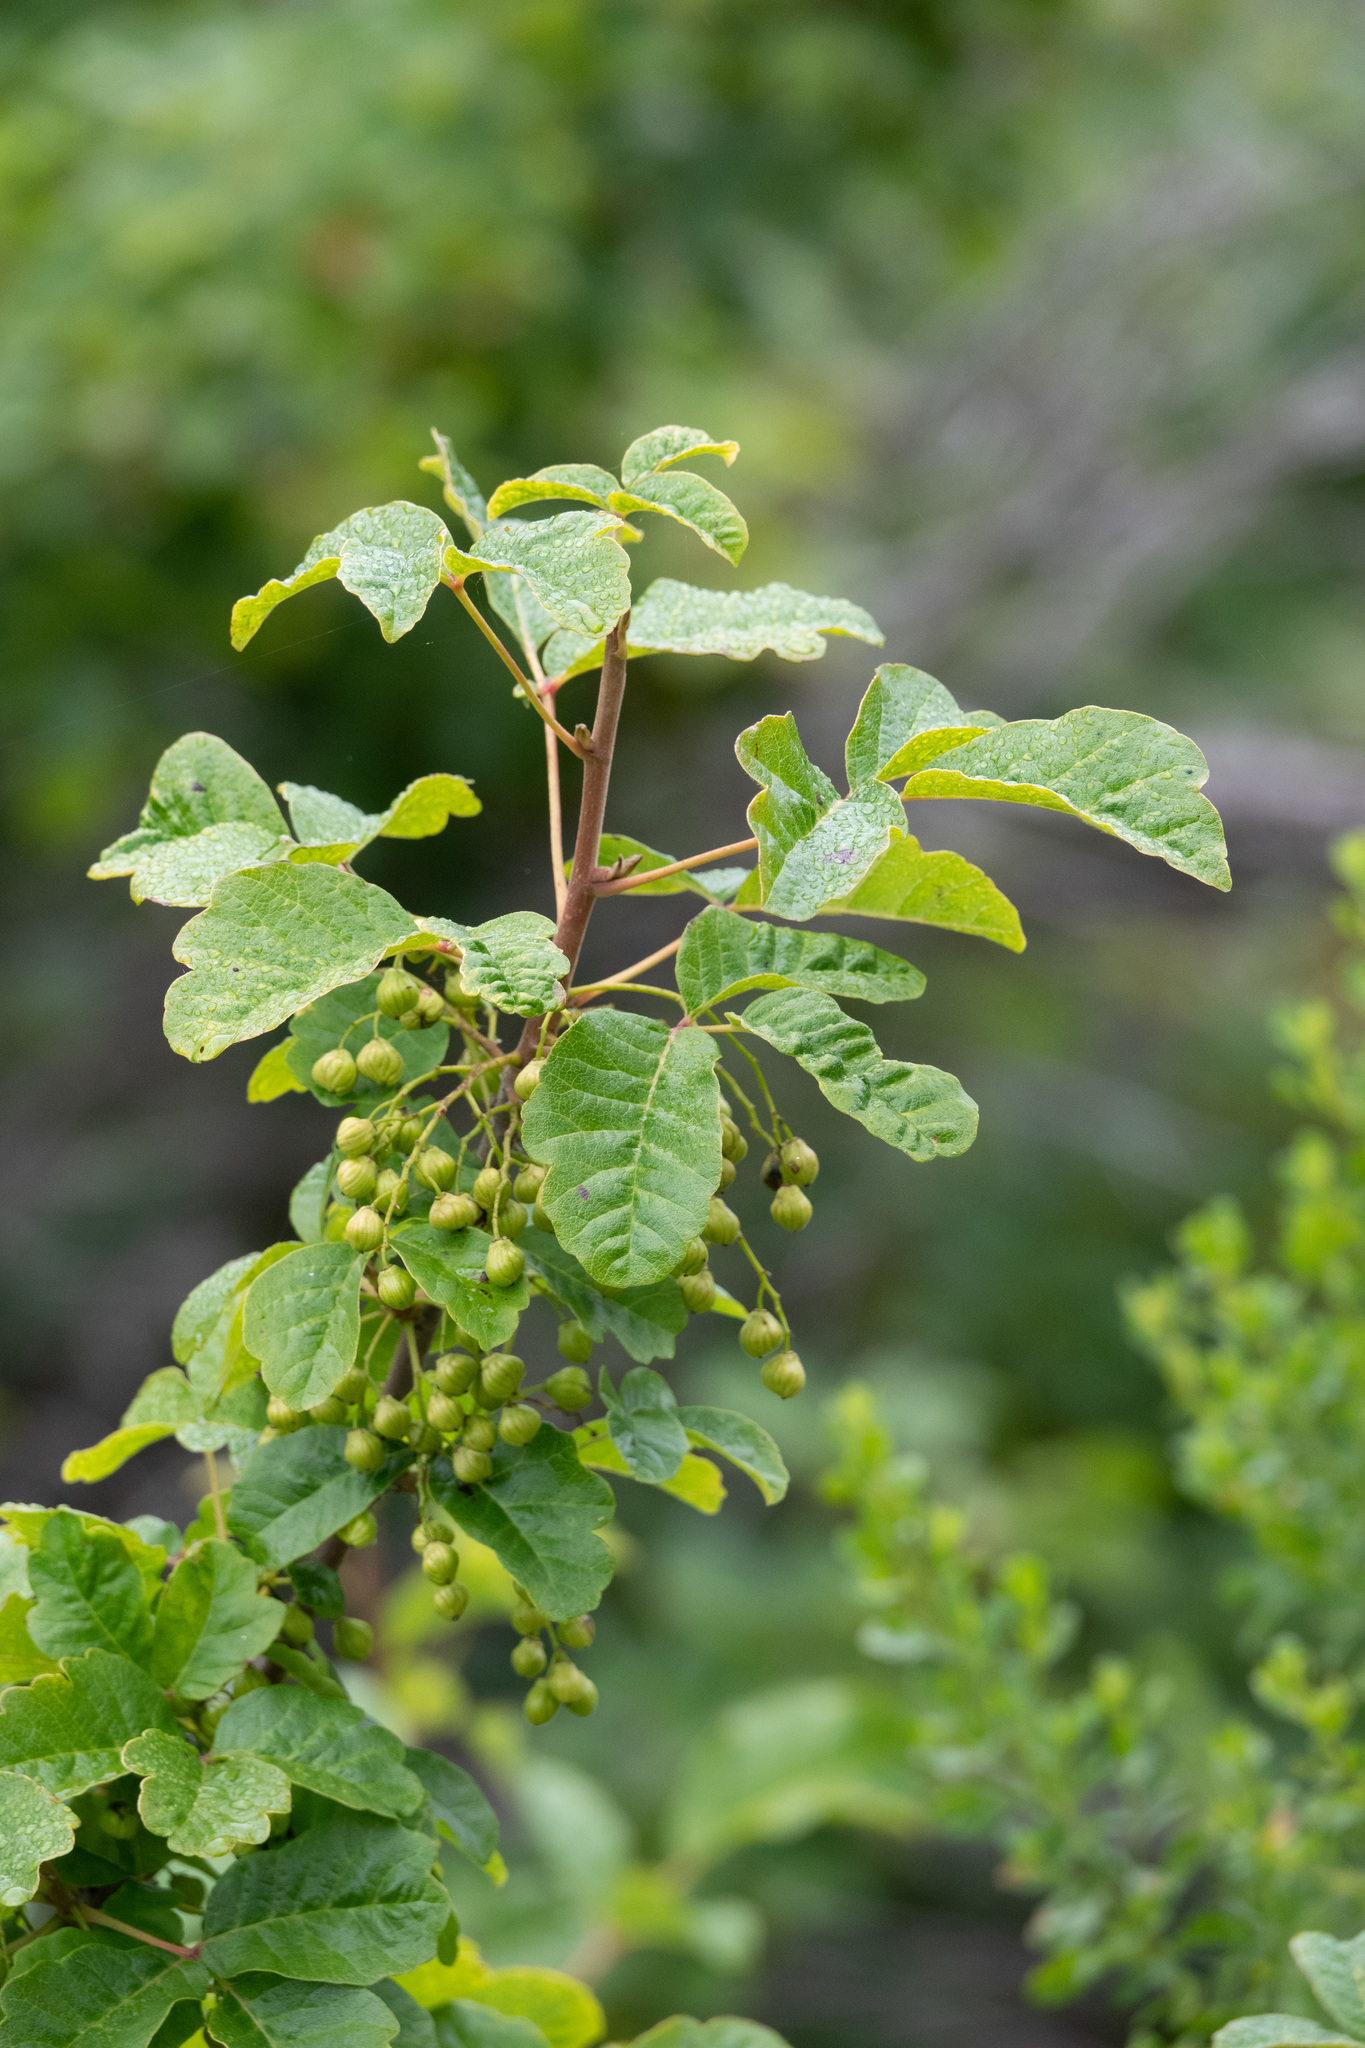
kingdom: Plantae
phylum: Tracheophyta
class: Magnoliopsida
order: Sapindales
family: Anacardiaceae
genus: Toxicodendron
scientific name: Toxicodendron diversilobum
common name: Pacific poison-oak
